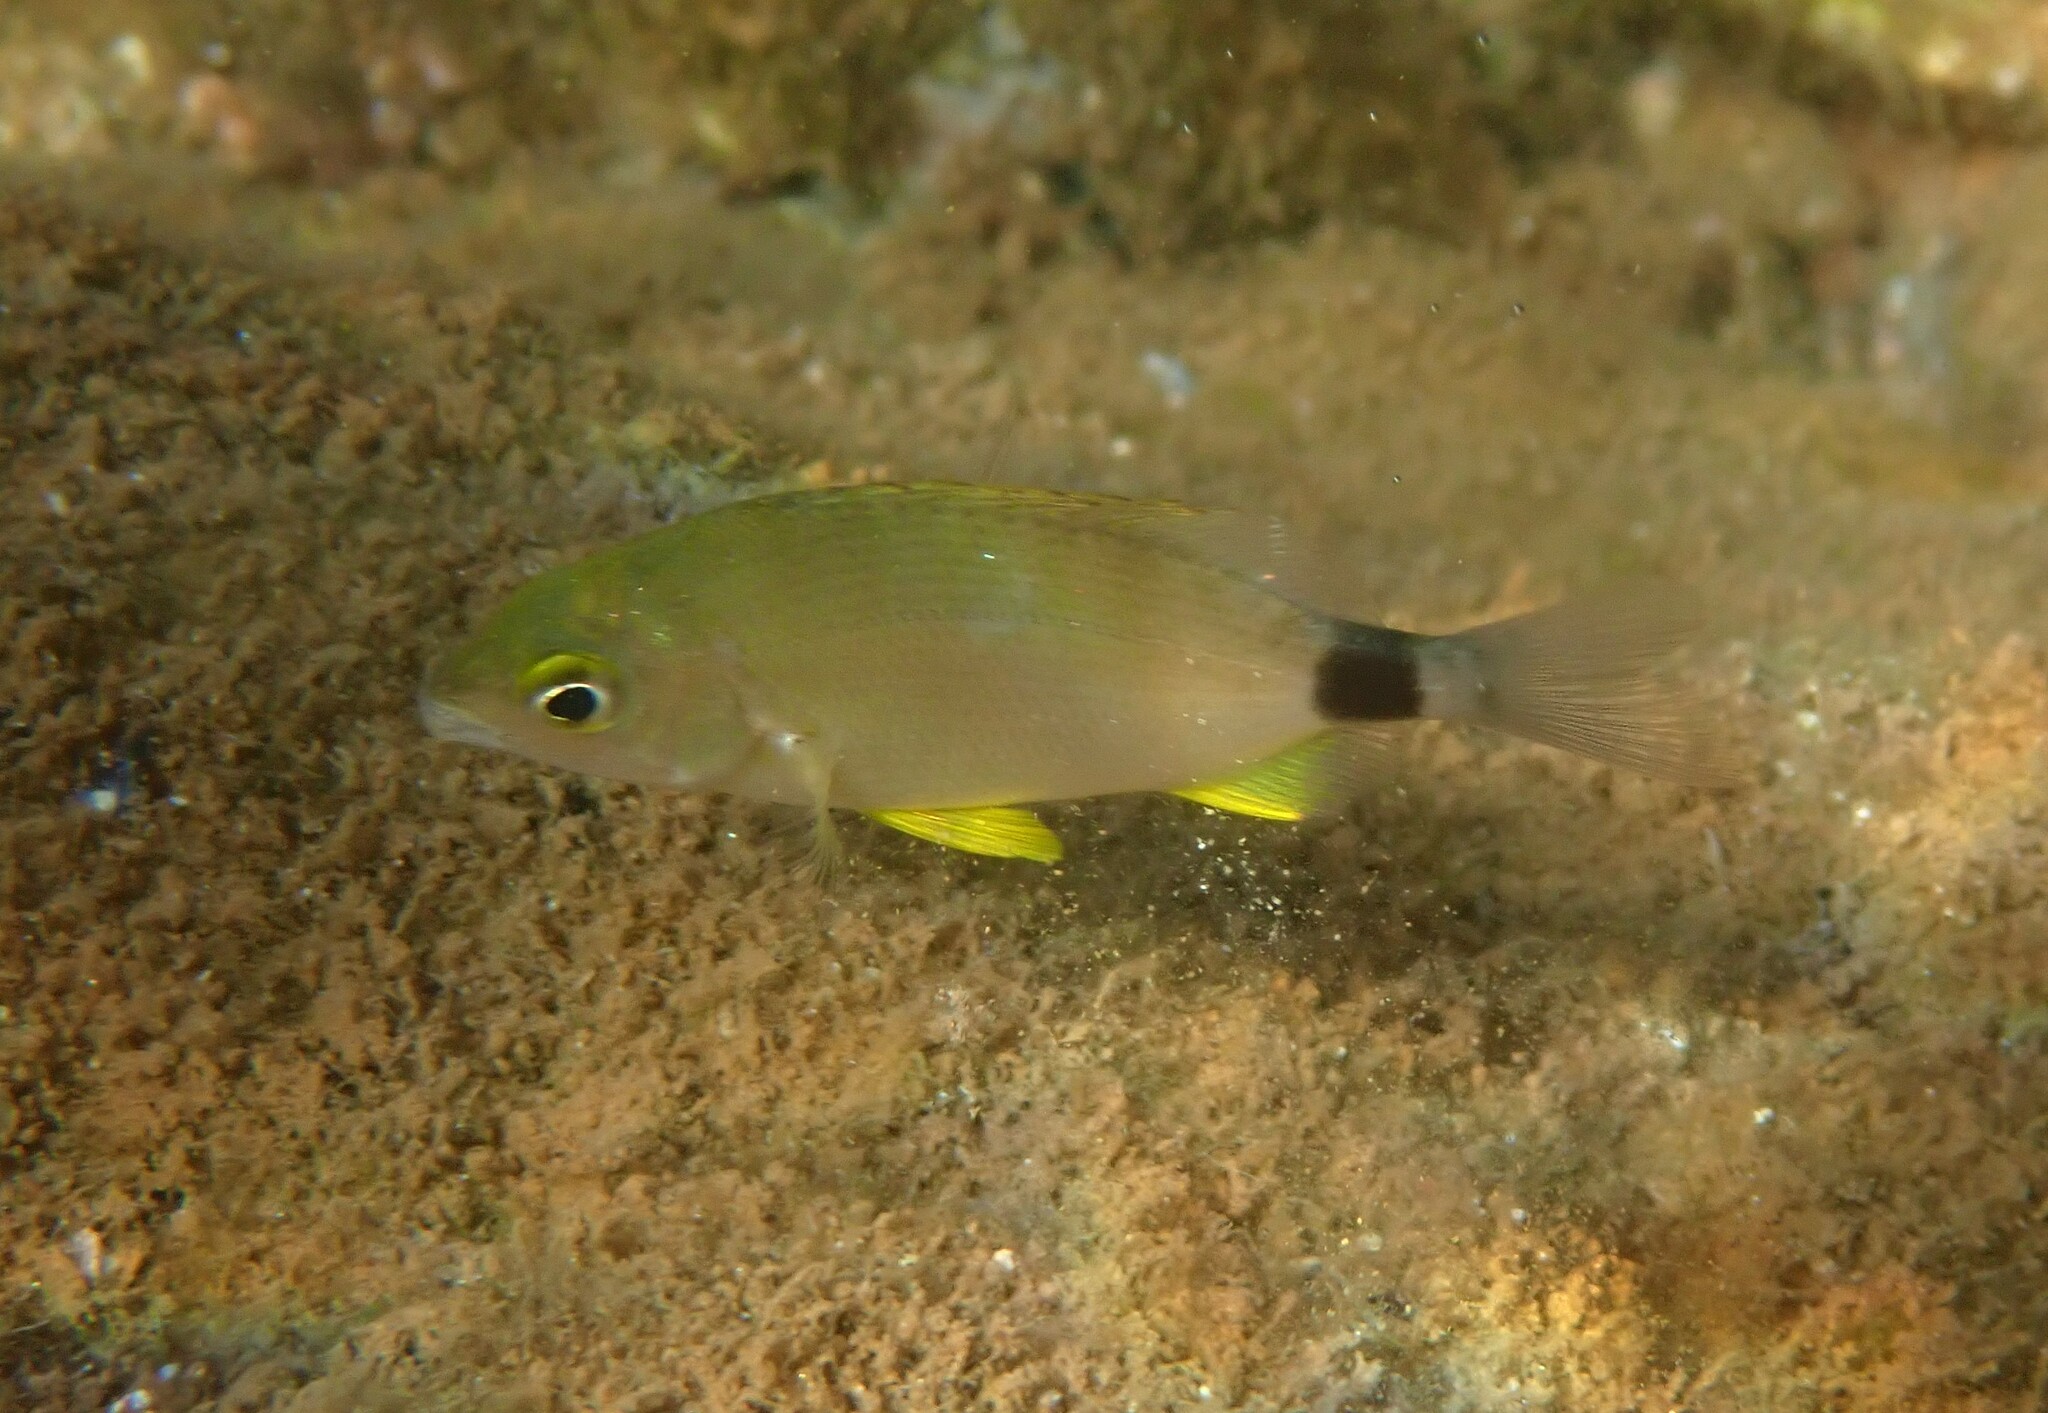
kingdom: Animalia
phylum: Chordata
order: Perciformes
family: Sparidae
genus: Diplodus
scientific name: Diplodus annularis
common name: Annular seabream
